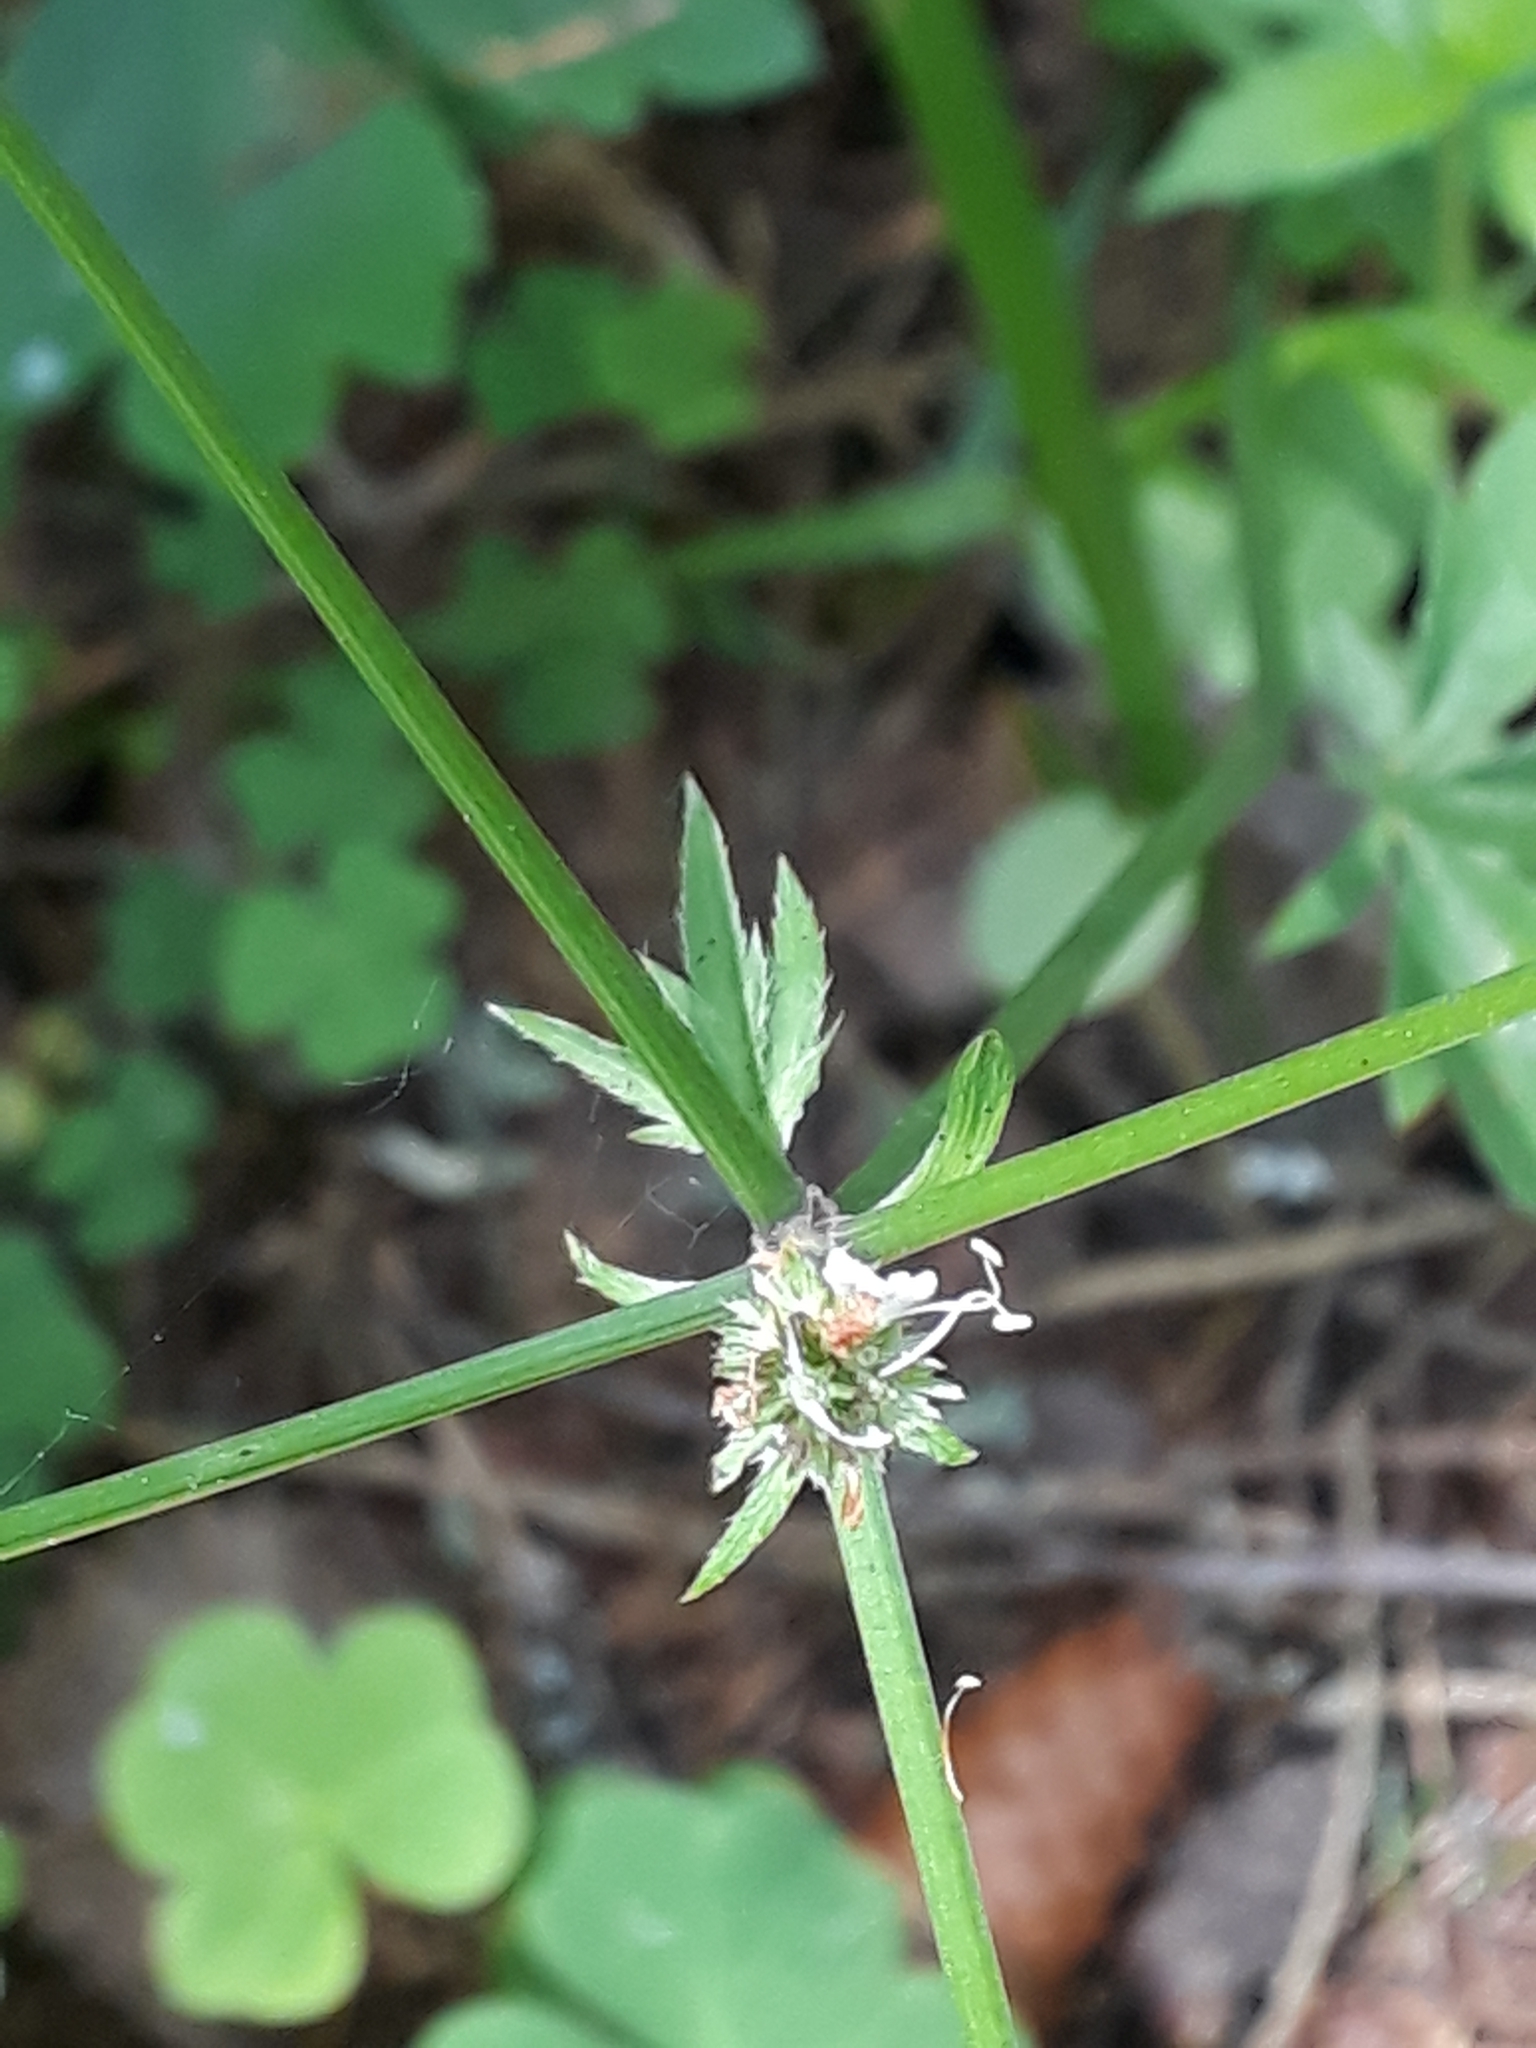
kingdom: Plantae
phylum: Tracheophyta
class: Magnoliopsida
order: Apiales
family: Apiaceae
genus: Sanicula
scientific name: Sanicula europaea
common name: Sanicle
